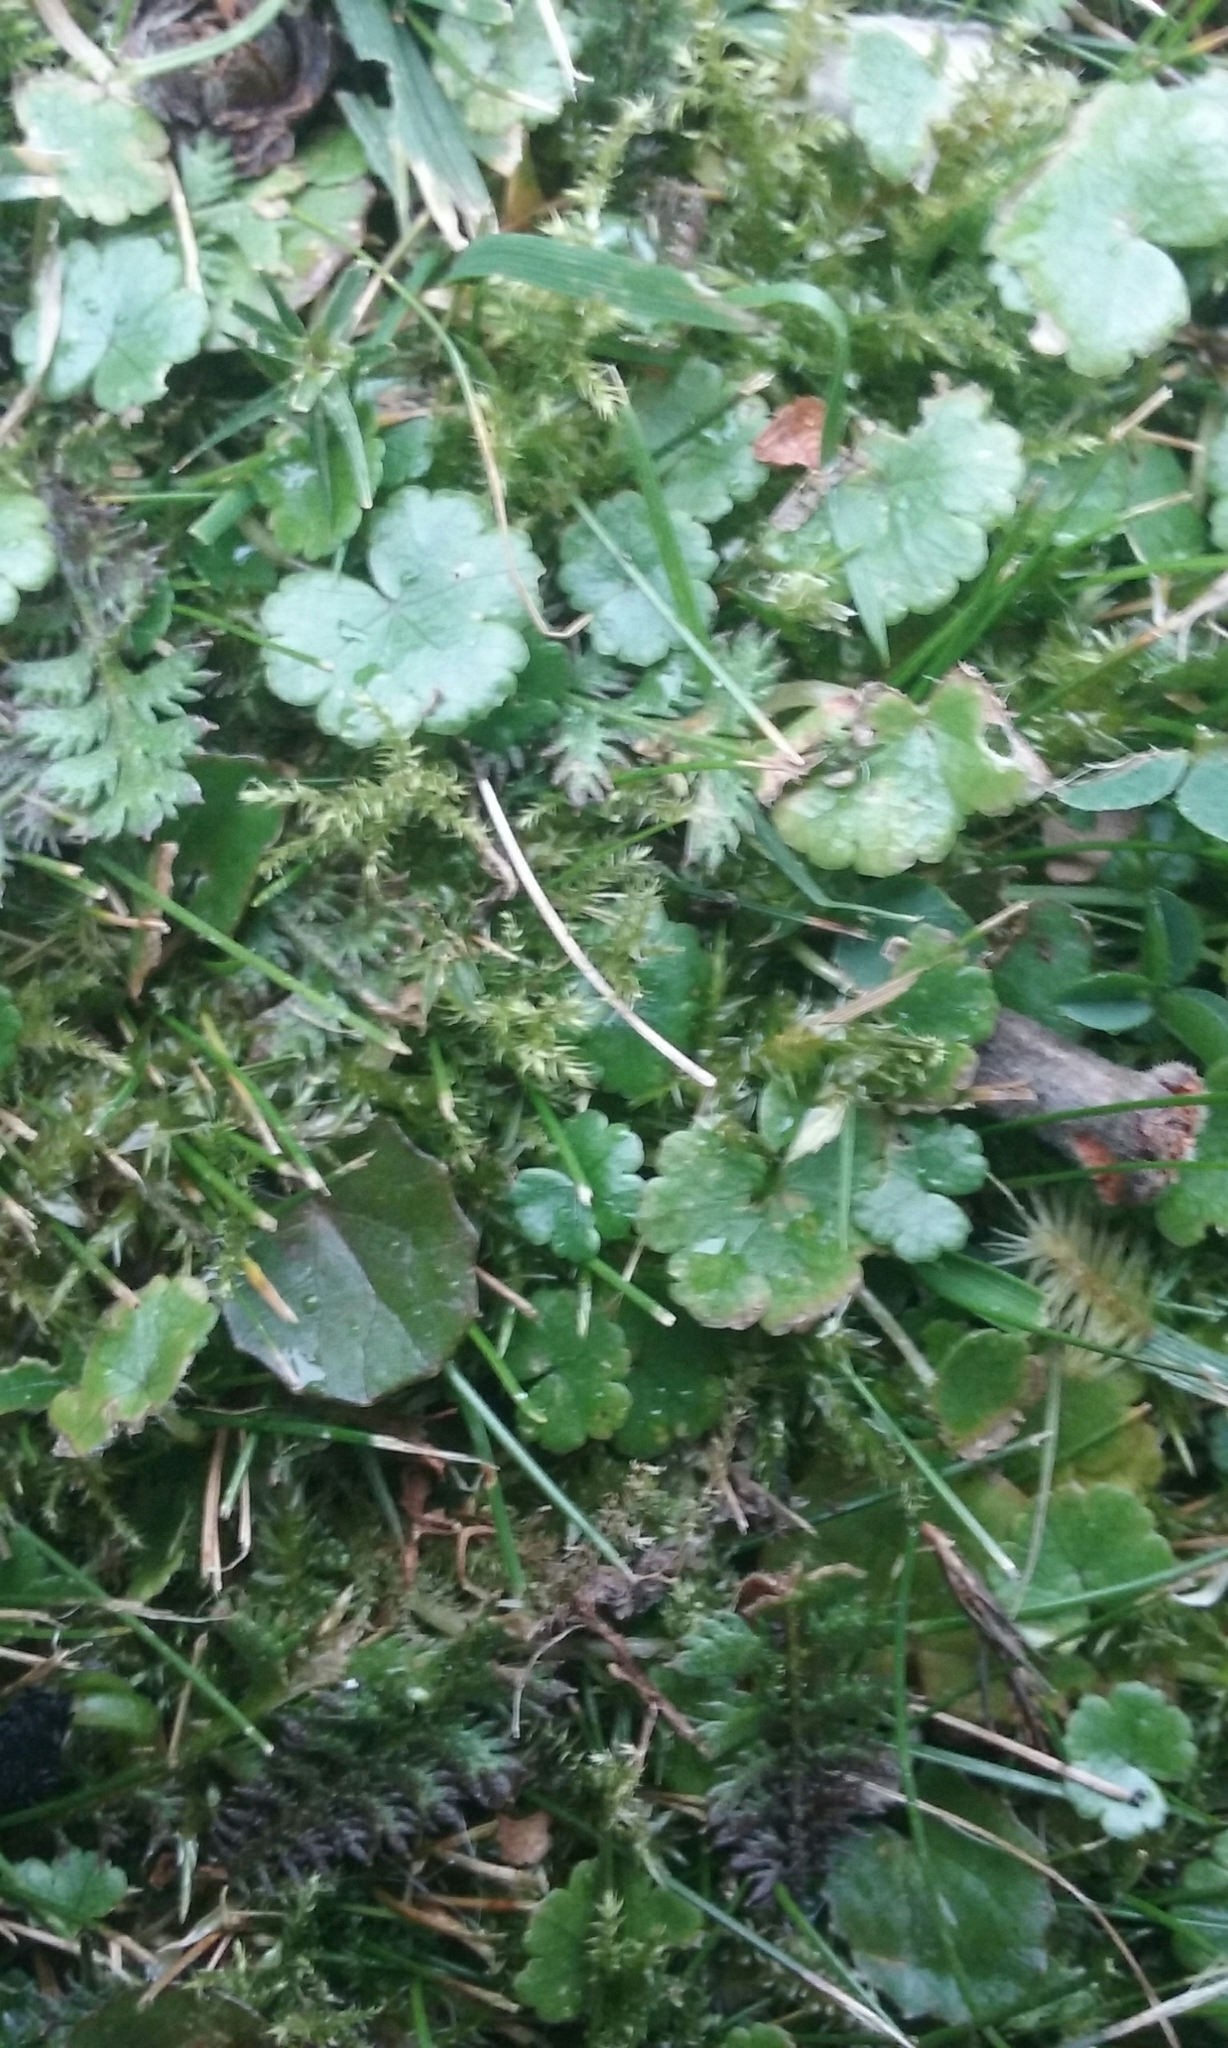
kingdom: Plantae
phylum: Tracheophyta
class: Magnoliopsida
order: Apiales
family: Araliaceae
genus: Hydrocotyle
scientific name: Hydrocotyle microphylla
